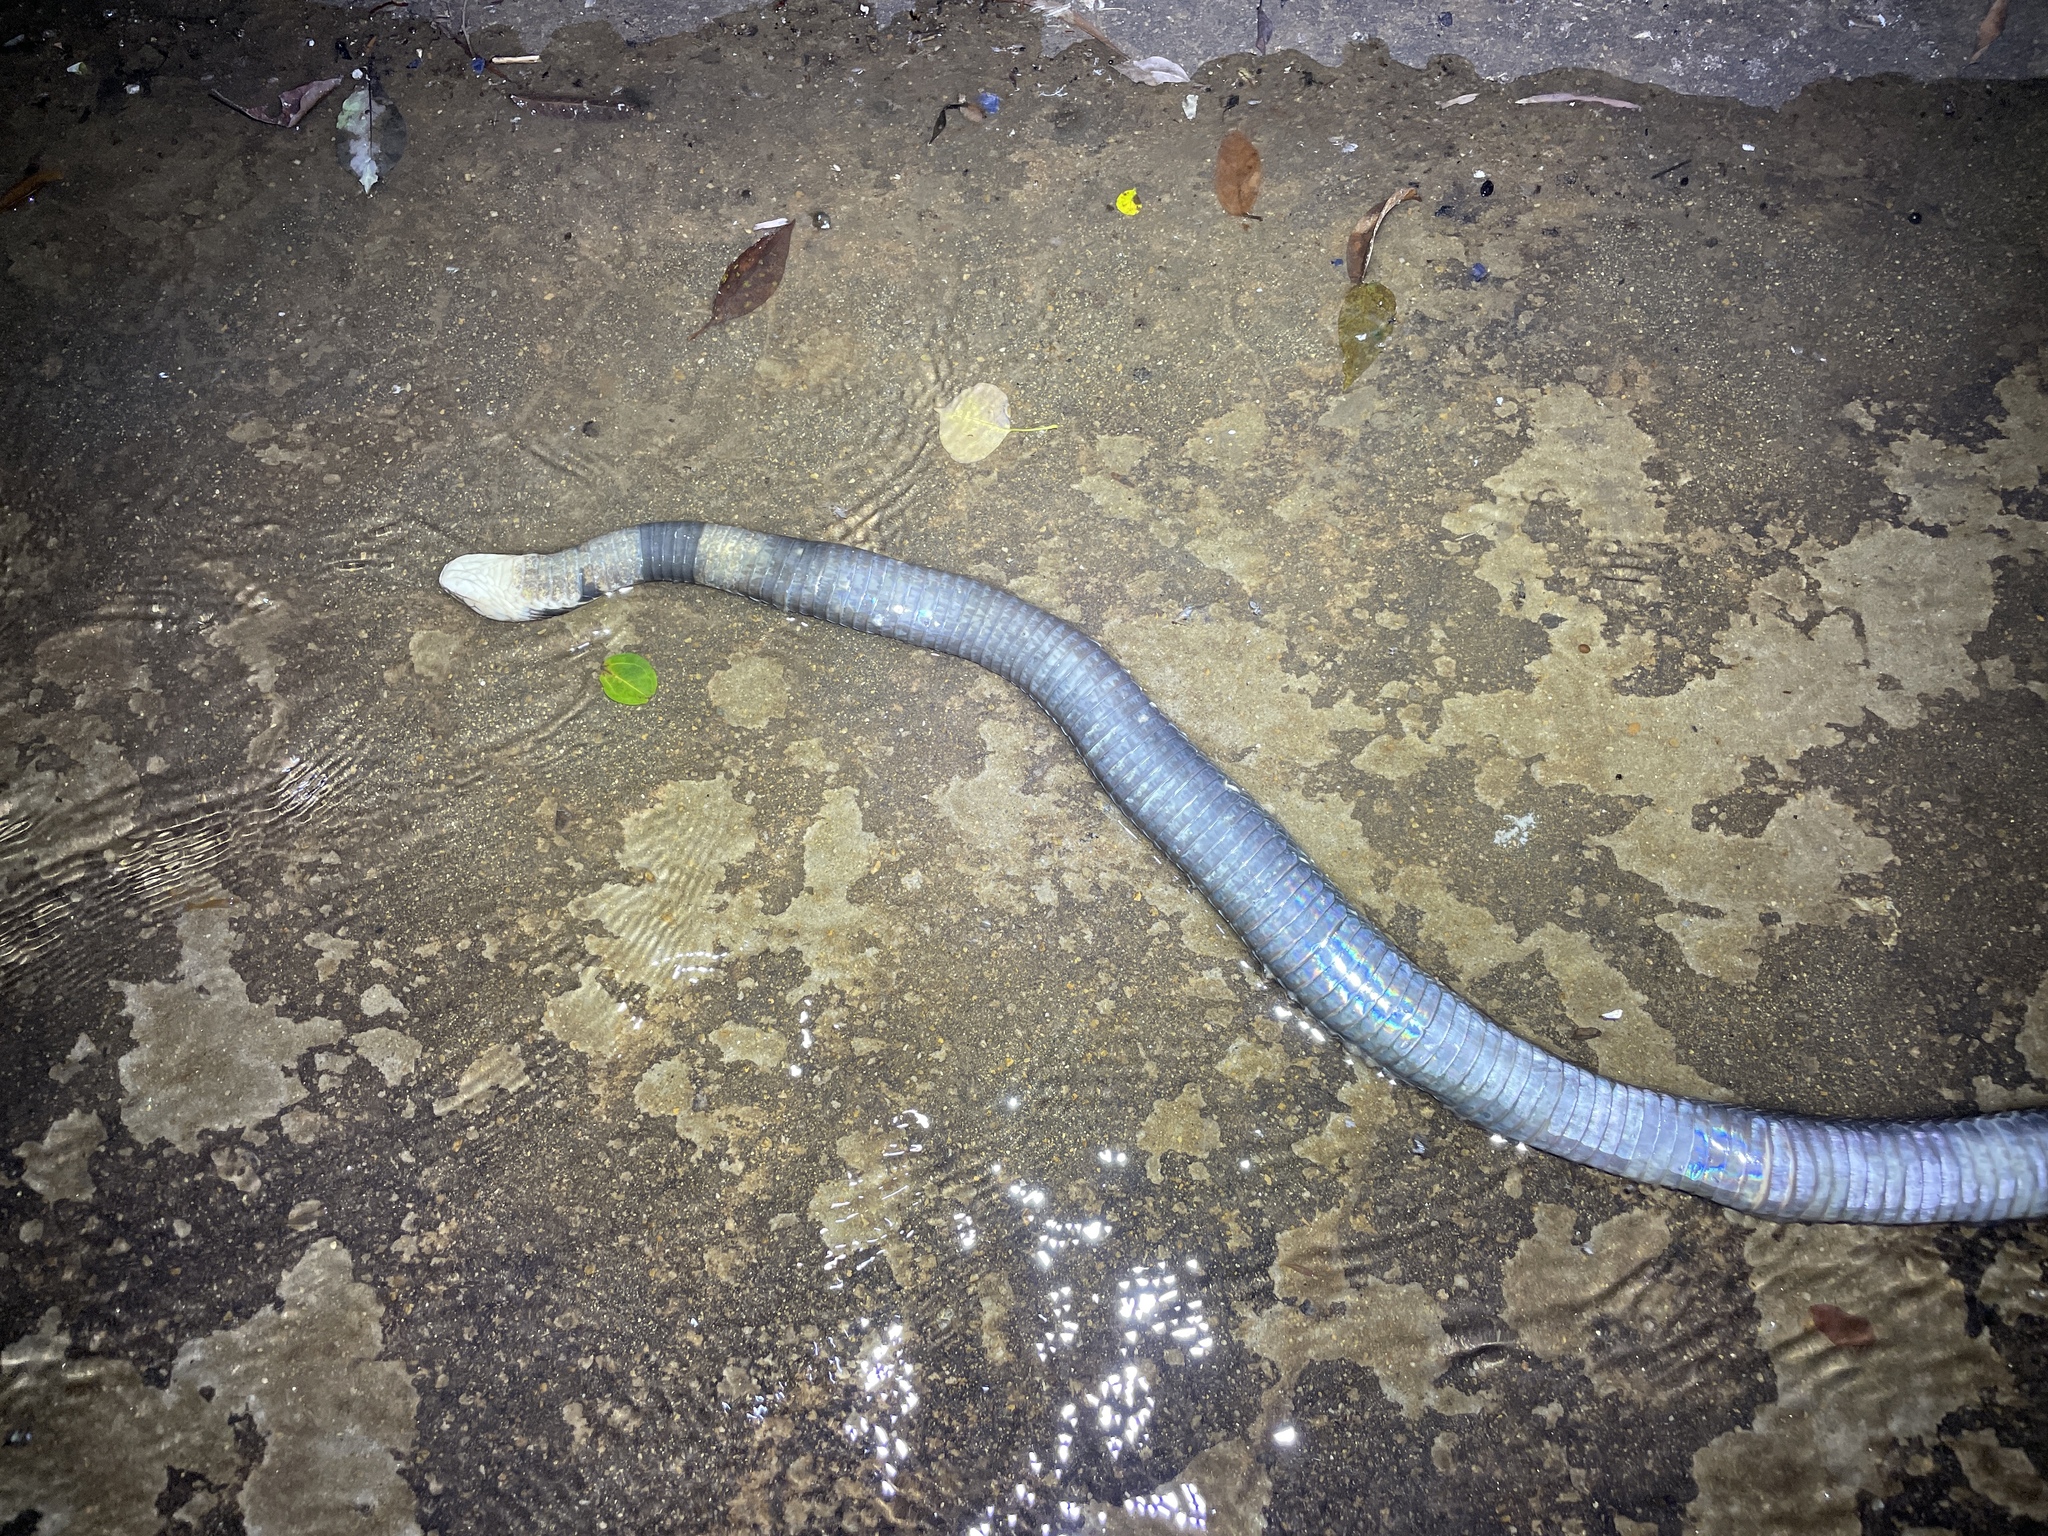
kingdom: Animalia
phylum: Chordata
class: Squamata
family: Elapidae
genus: Naja
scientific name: Naja atra
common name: Chinese cobra
